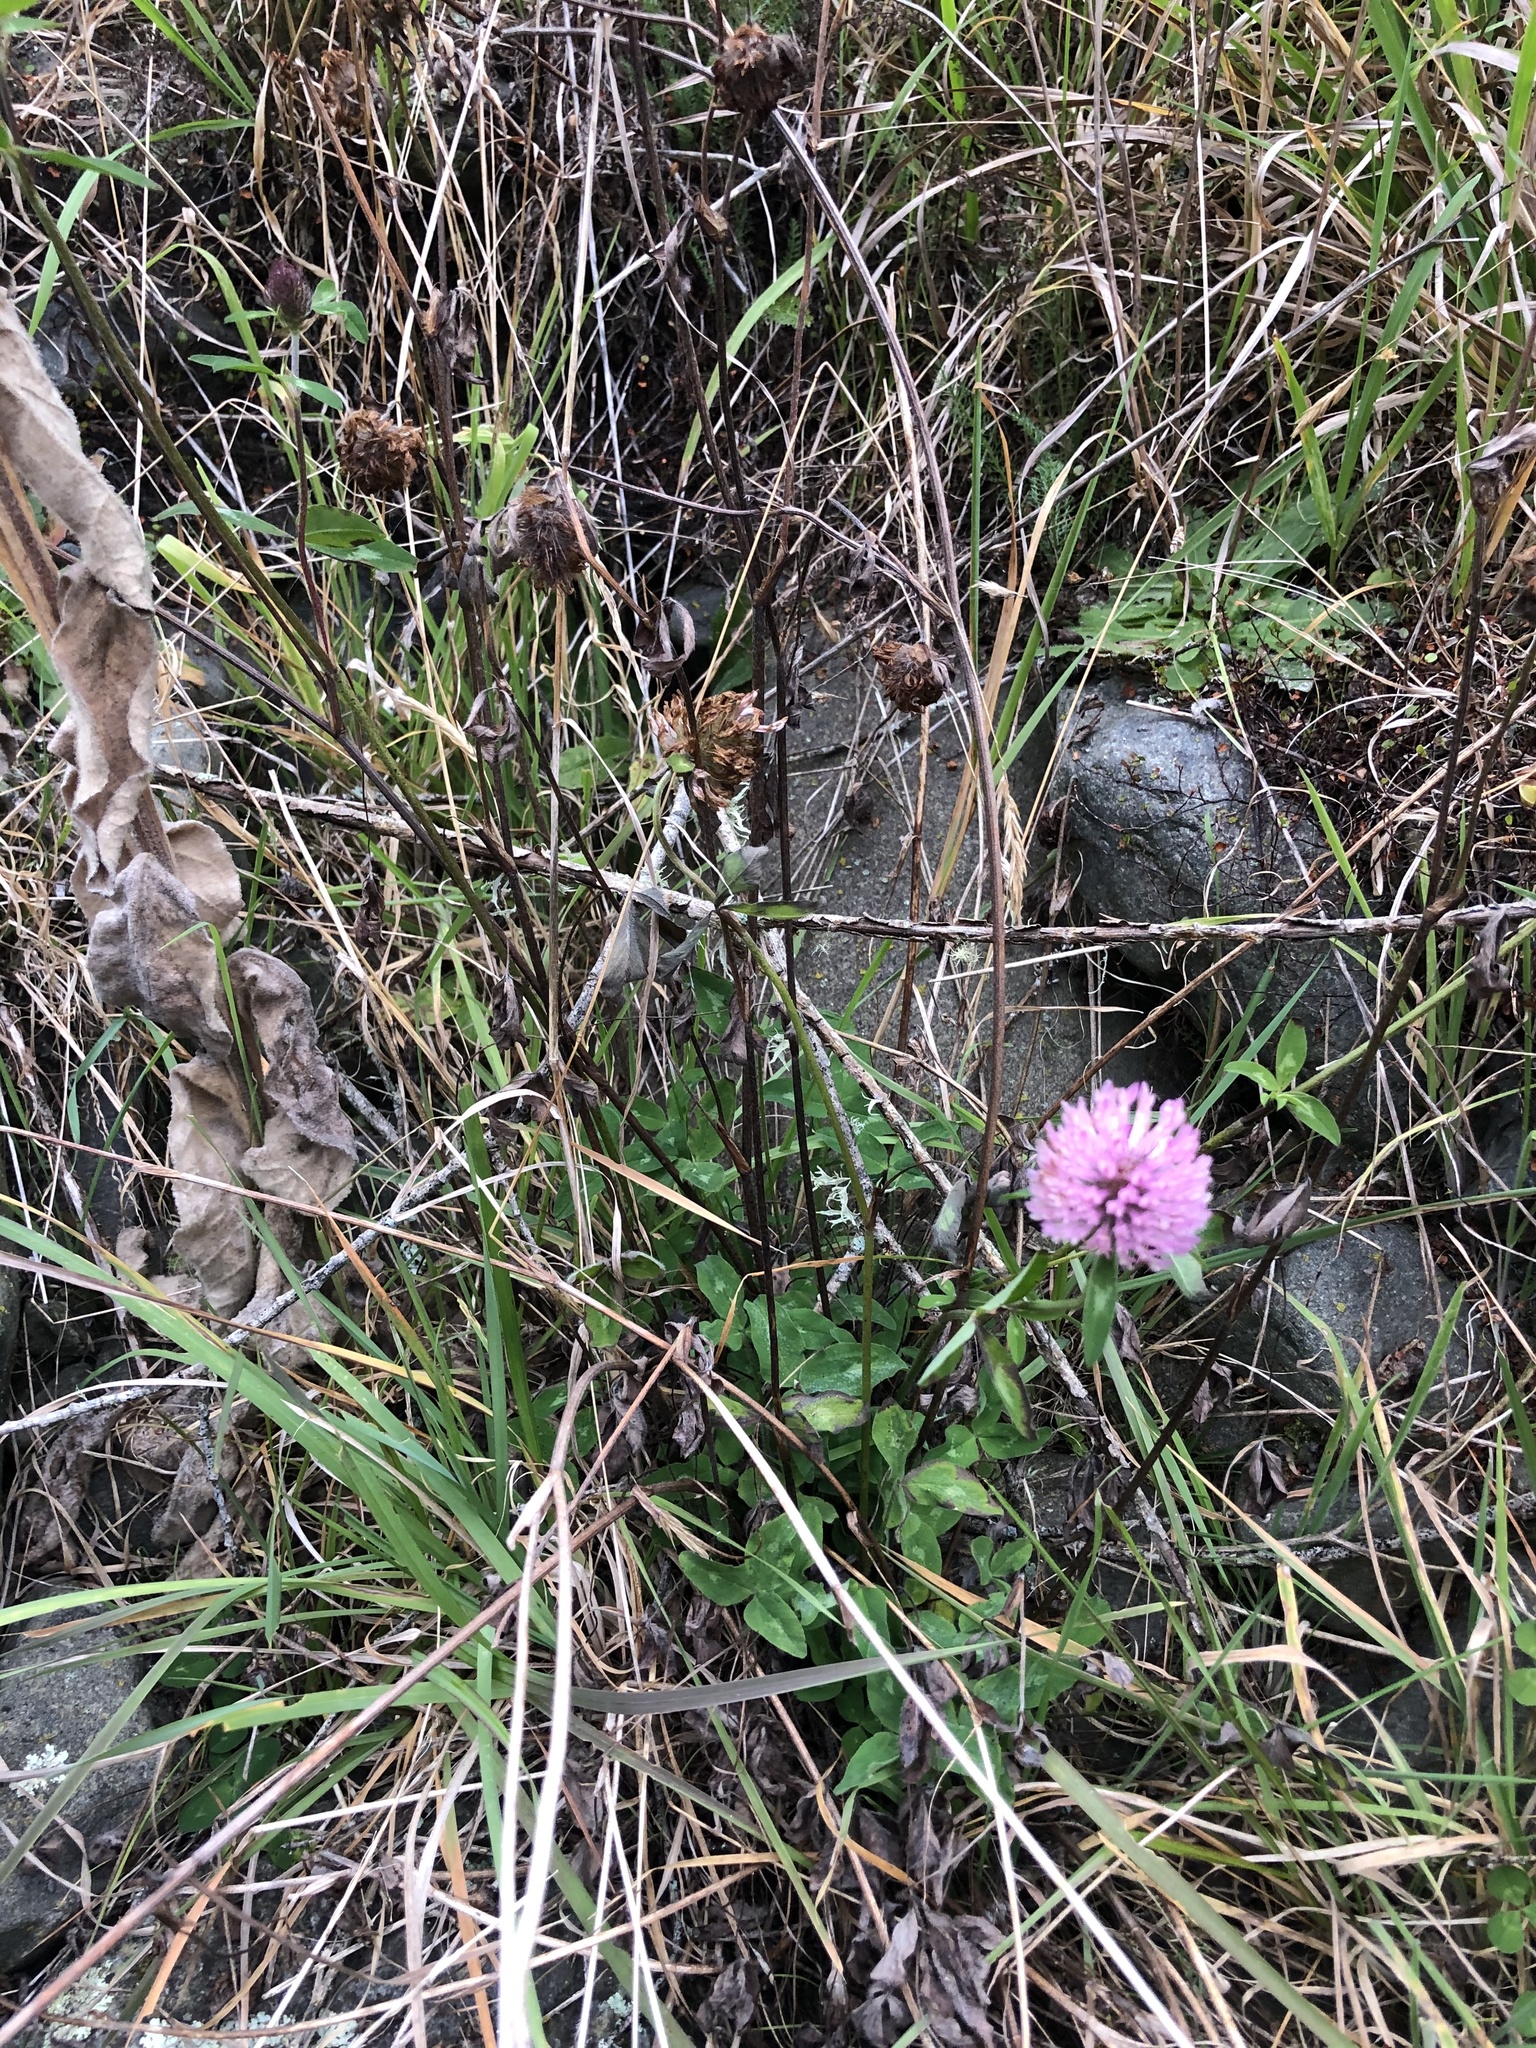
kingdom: Plantae
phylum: Tracheophyta
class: Magnoliopsida
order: Fabales
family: Fabaceae
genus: Trifolium
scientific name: Trifolium pratense
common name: Red clover
